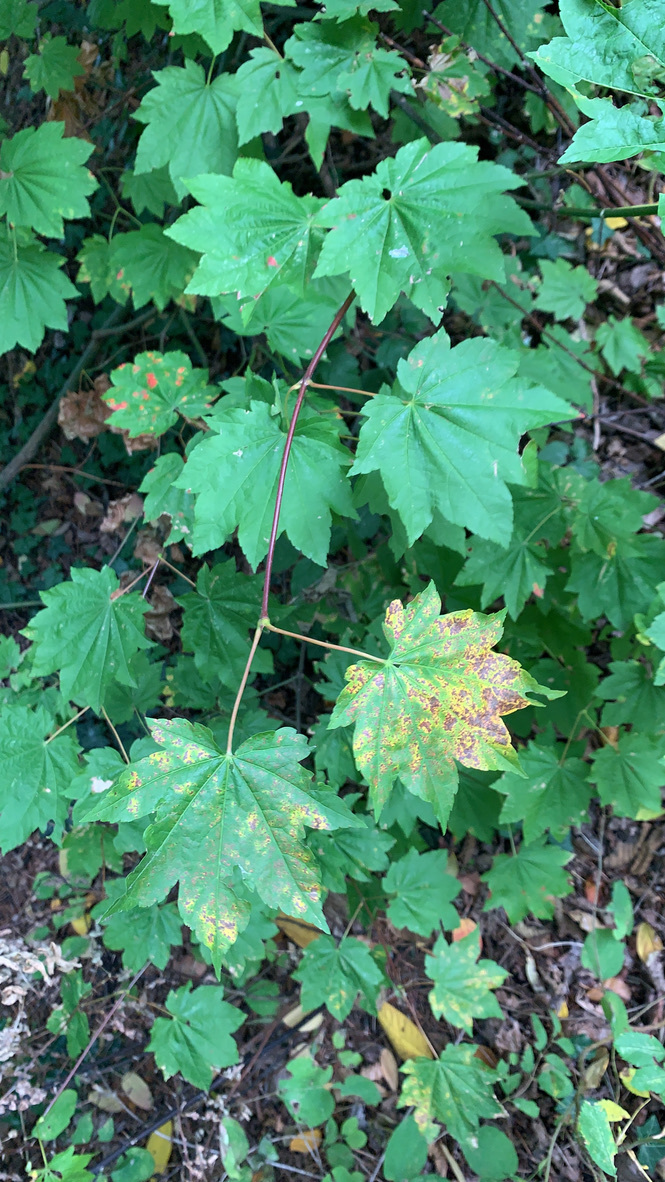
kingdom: Plantae
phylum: Tracheophyta
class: Magnoliopsida
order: Sapindales
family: Sapindaceae
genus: Acer
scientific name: Acer circinatum
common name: Vine maple
